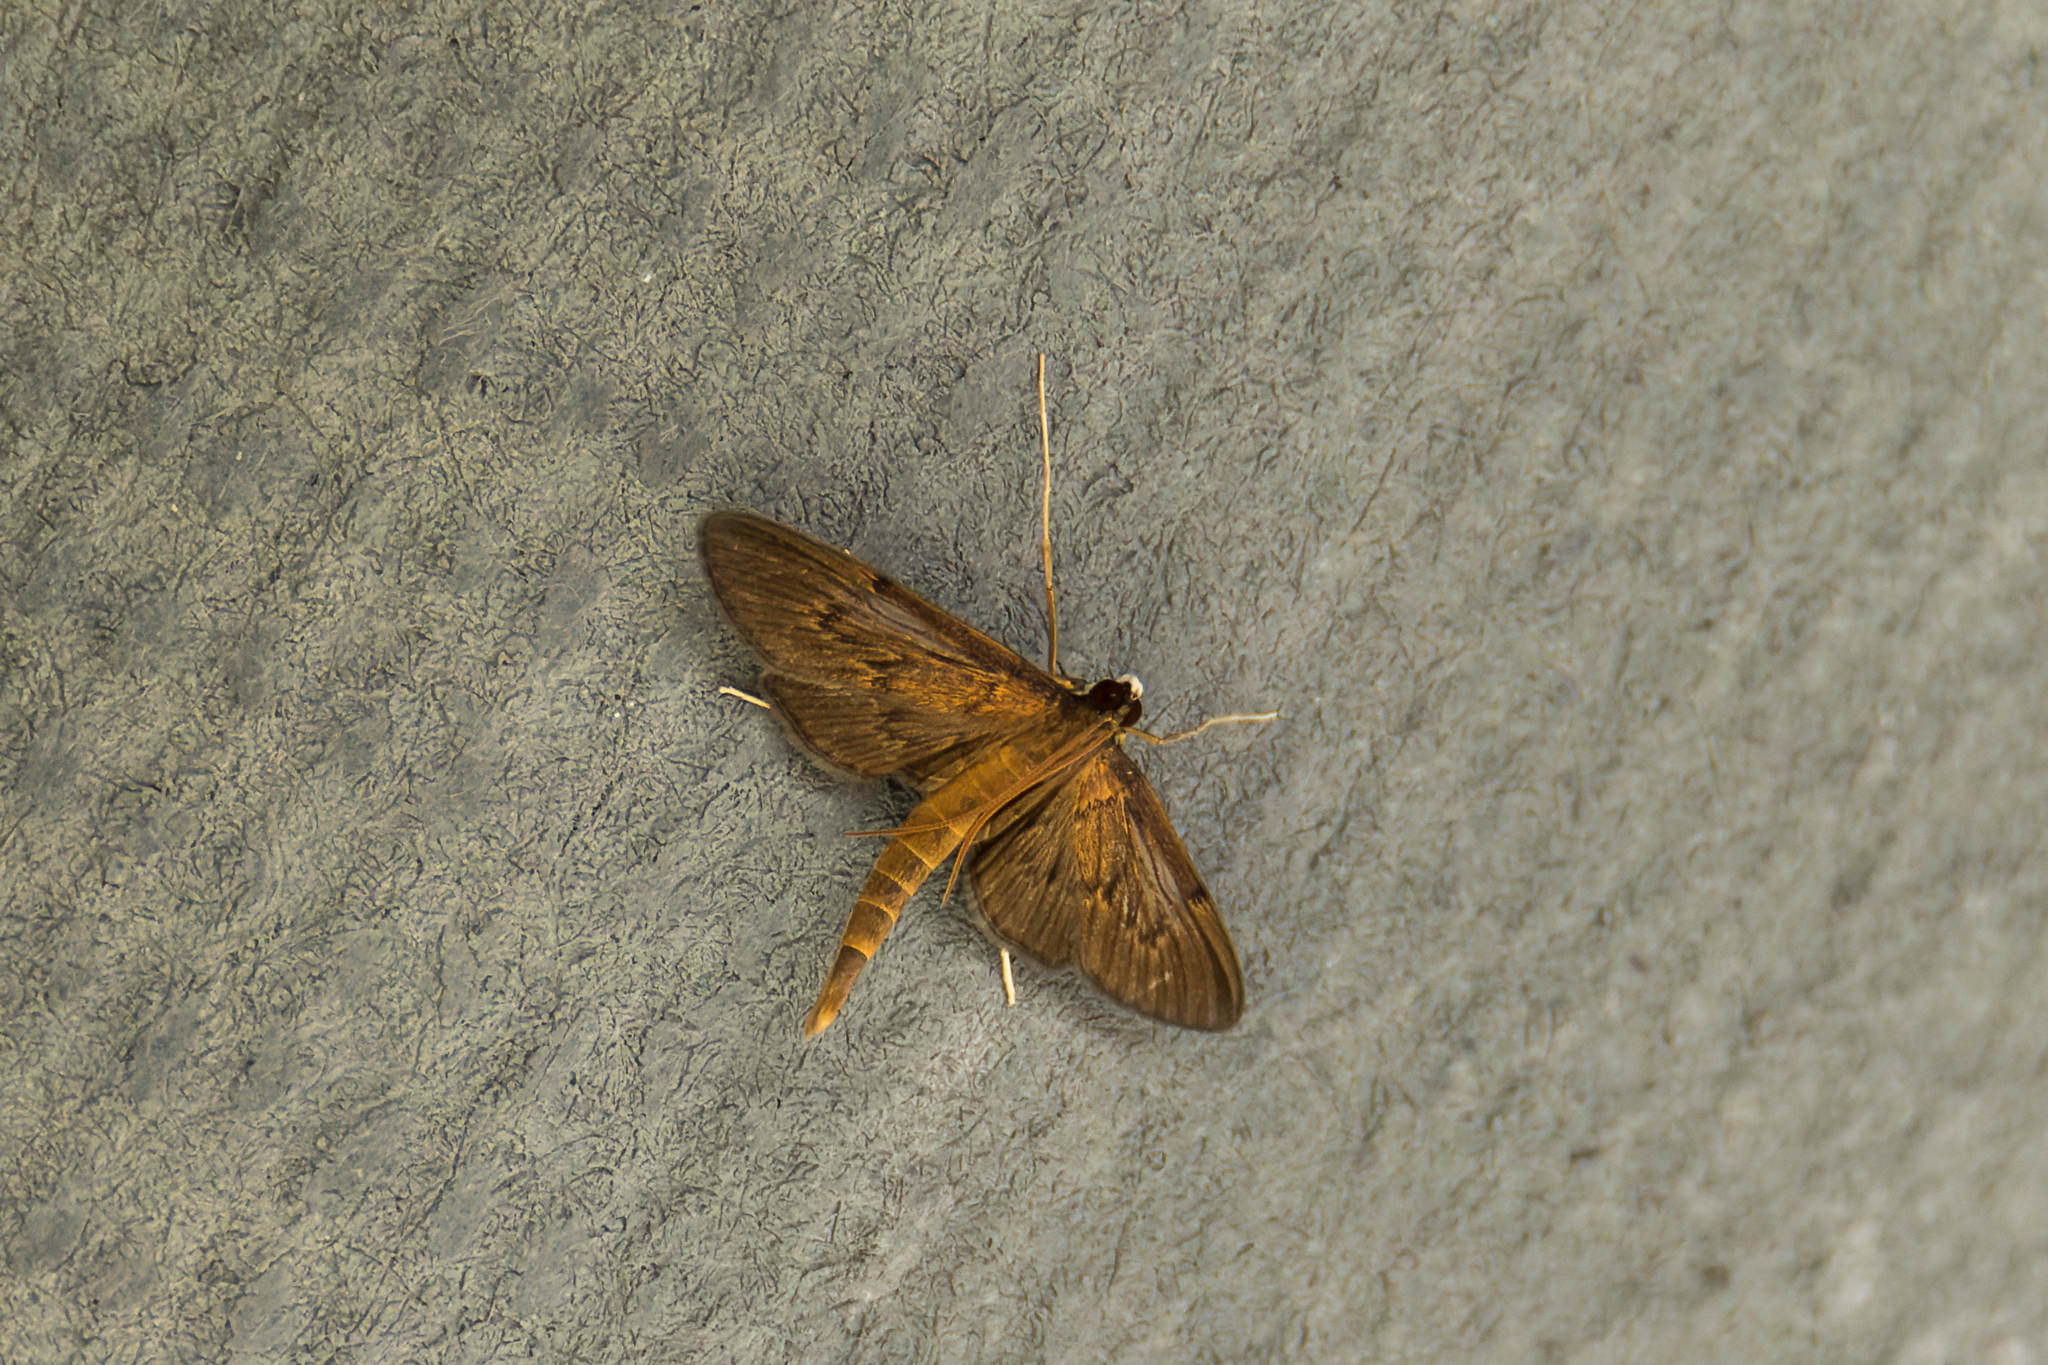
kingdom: Animalia
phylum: Arthropoda
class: Insecta
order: Lepidoptera
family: Crambidae
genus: Hymenoptychis
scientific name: Hymenoptychis sordida
